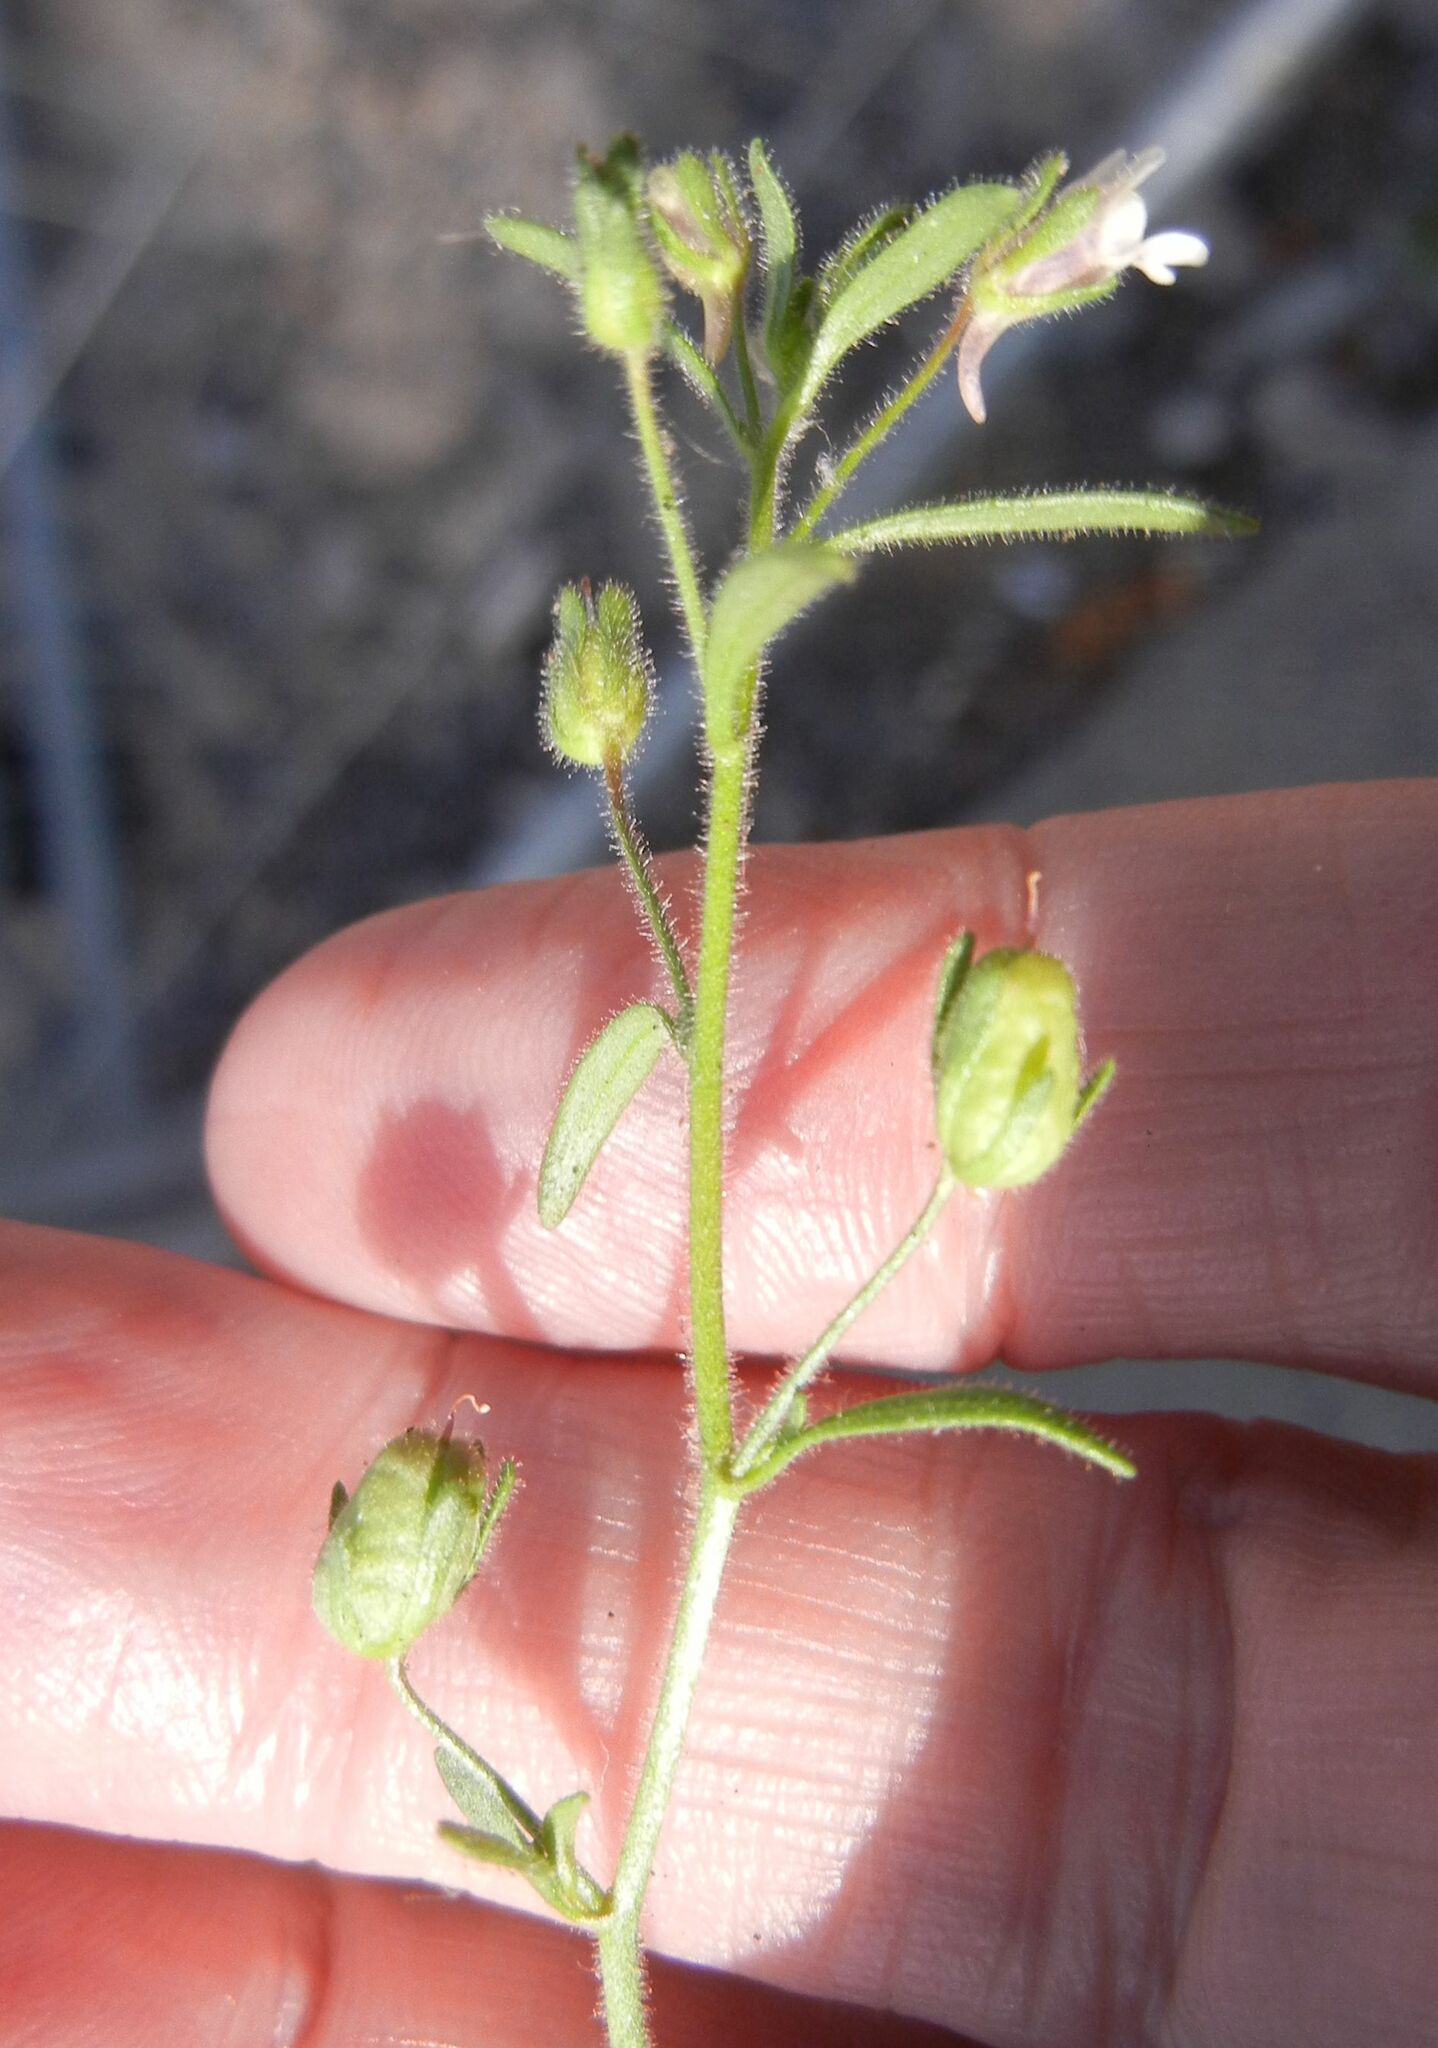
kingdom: Plantae
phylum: Tracheophyta
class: Magnoliopsida
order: Lamiales
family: Plantaginaceae
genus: Chaenorhinum
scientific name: Chaenorhinum minus
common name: Dwarf snapdragon
